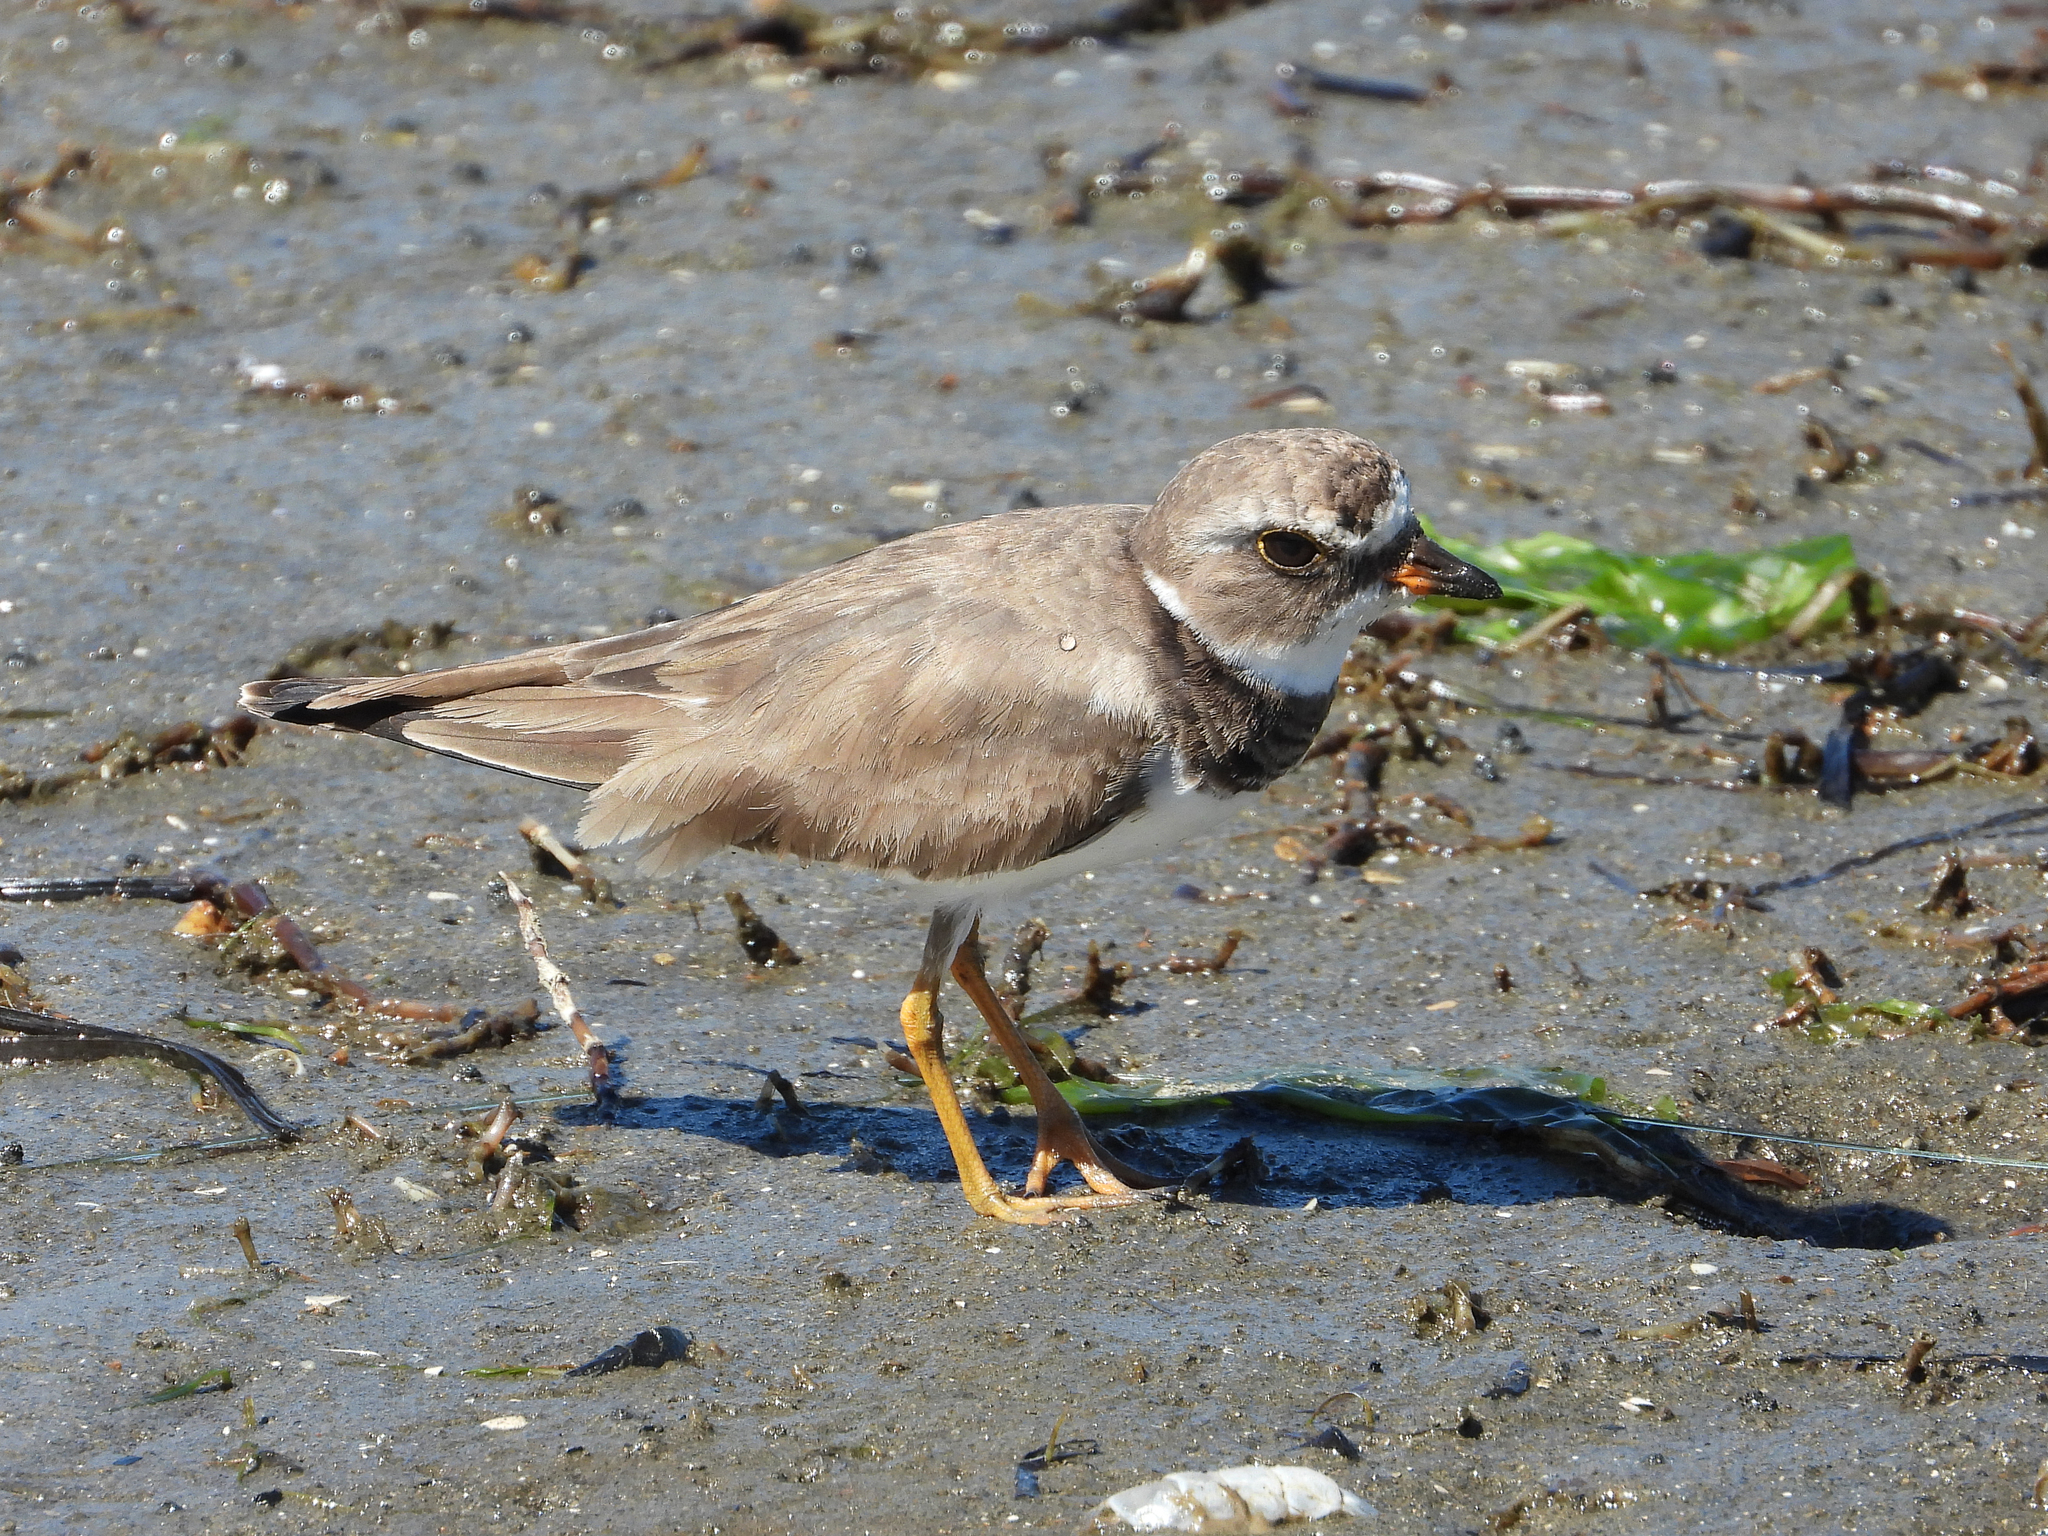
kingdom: Animalia
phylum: Chordata
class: Aves
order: Charadriiformes
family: Charadriidae
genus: Charadrius
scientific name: Charadrius semipalmatus
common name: Semipalmated plover
